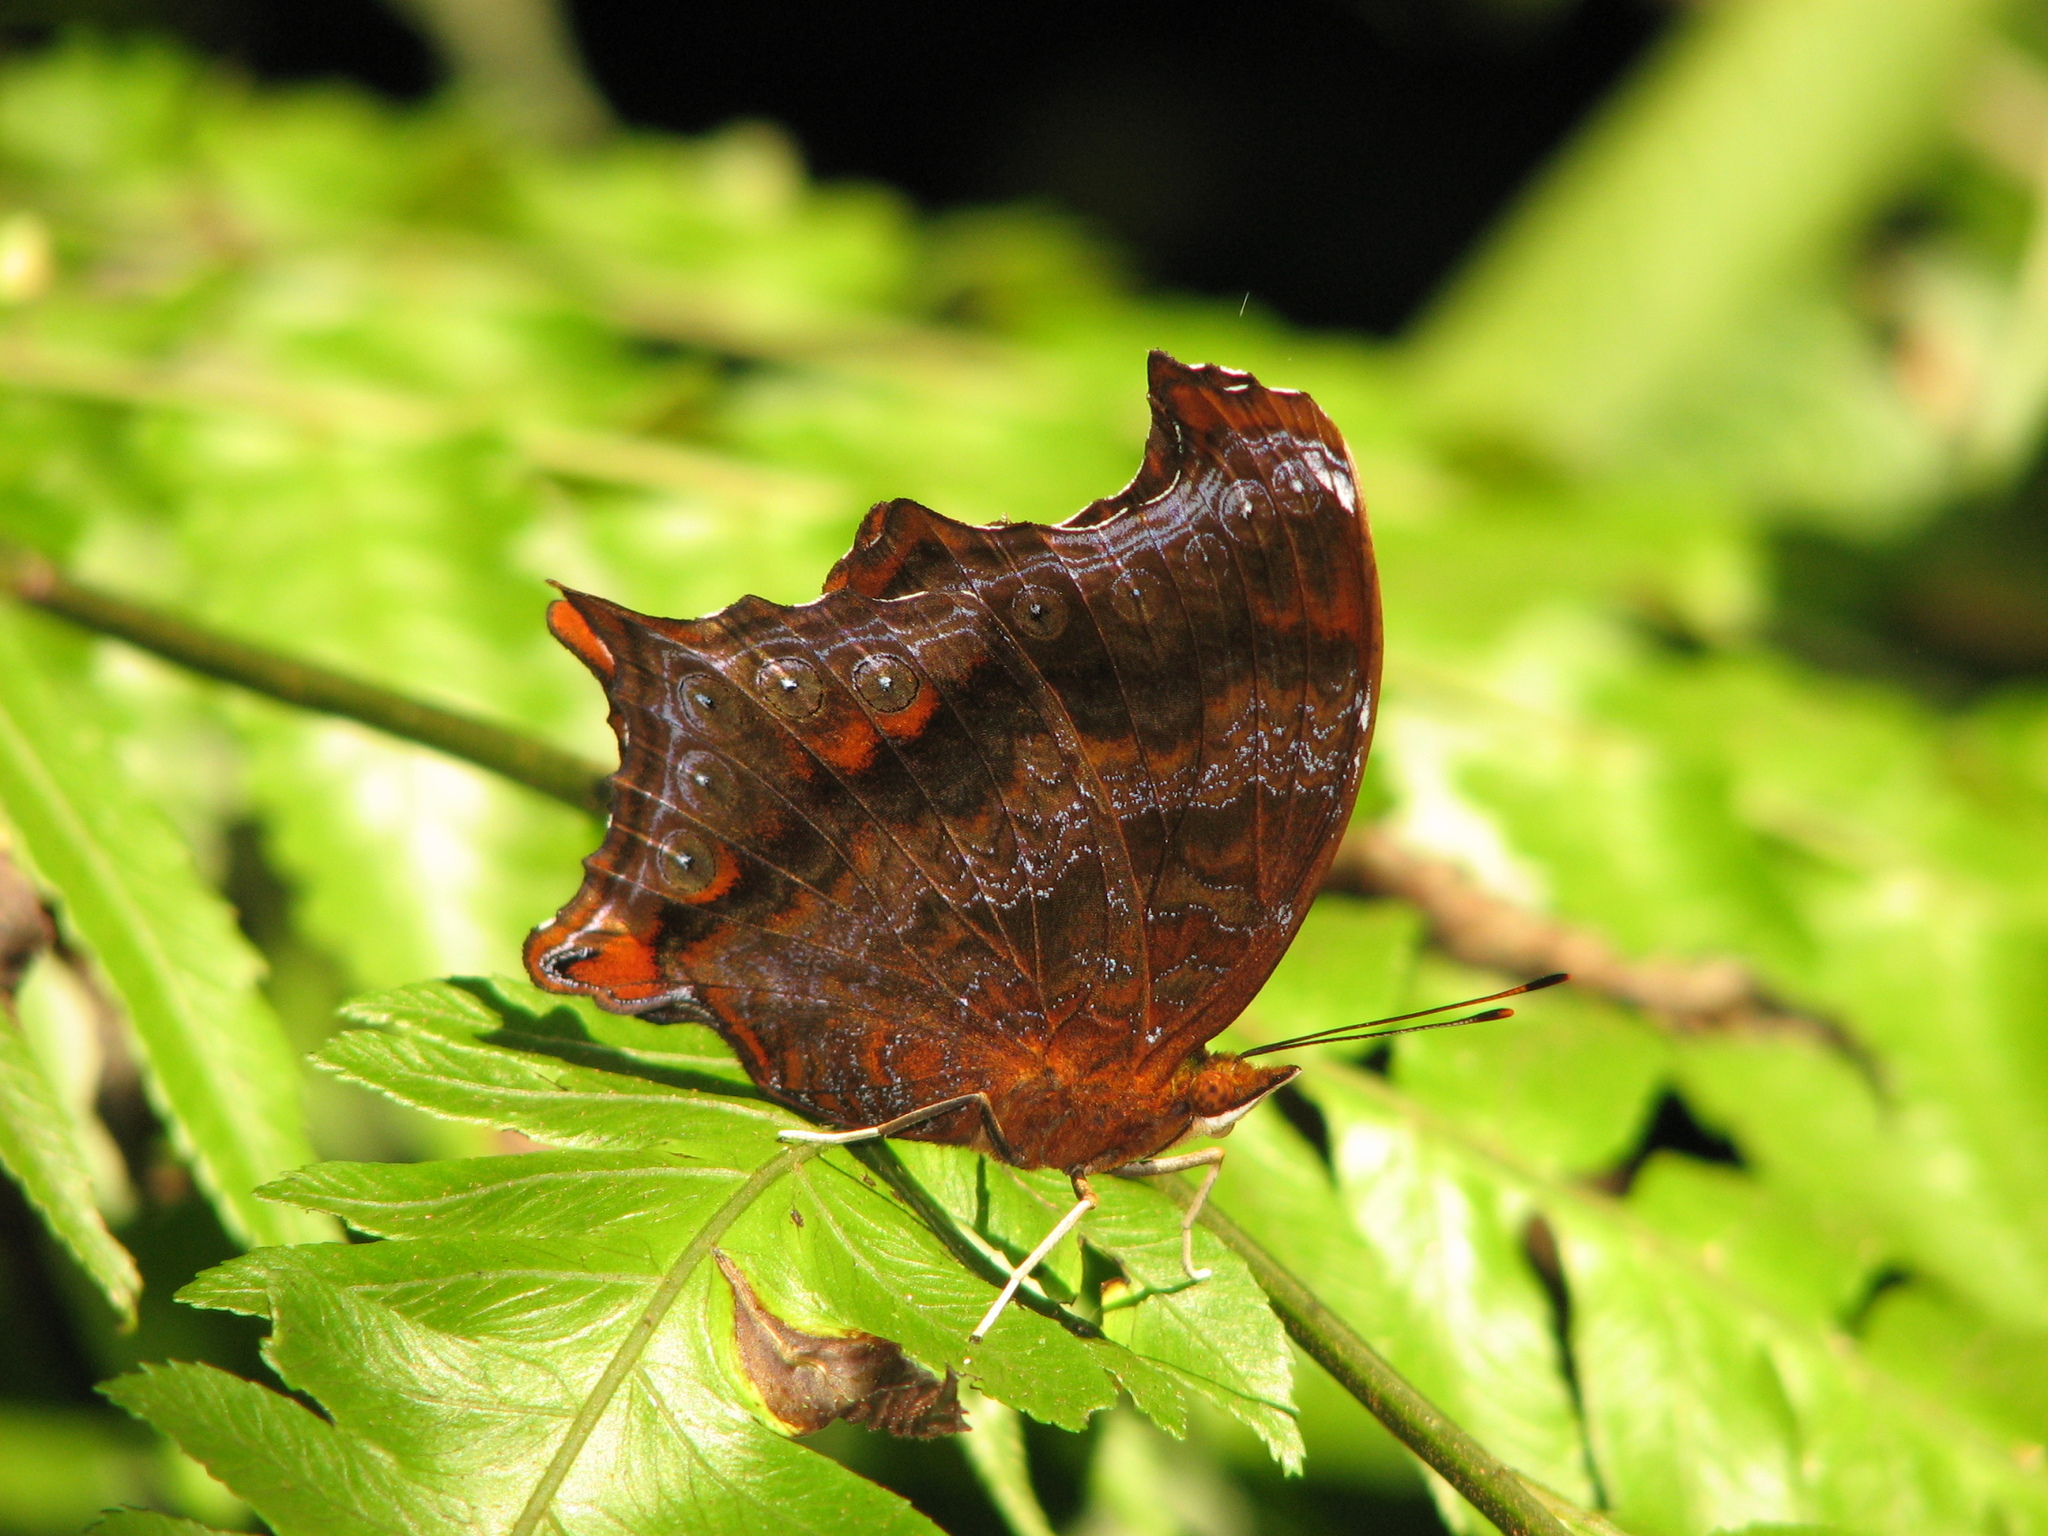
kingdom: Animalia
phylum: Arthropoda
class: Insecta
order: Lepidoptera
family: Nymphalidae
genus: Rhinopalpa
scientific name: Rhinopalpa polynice
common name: Wizard
